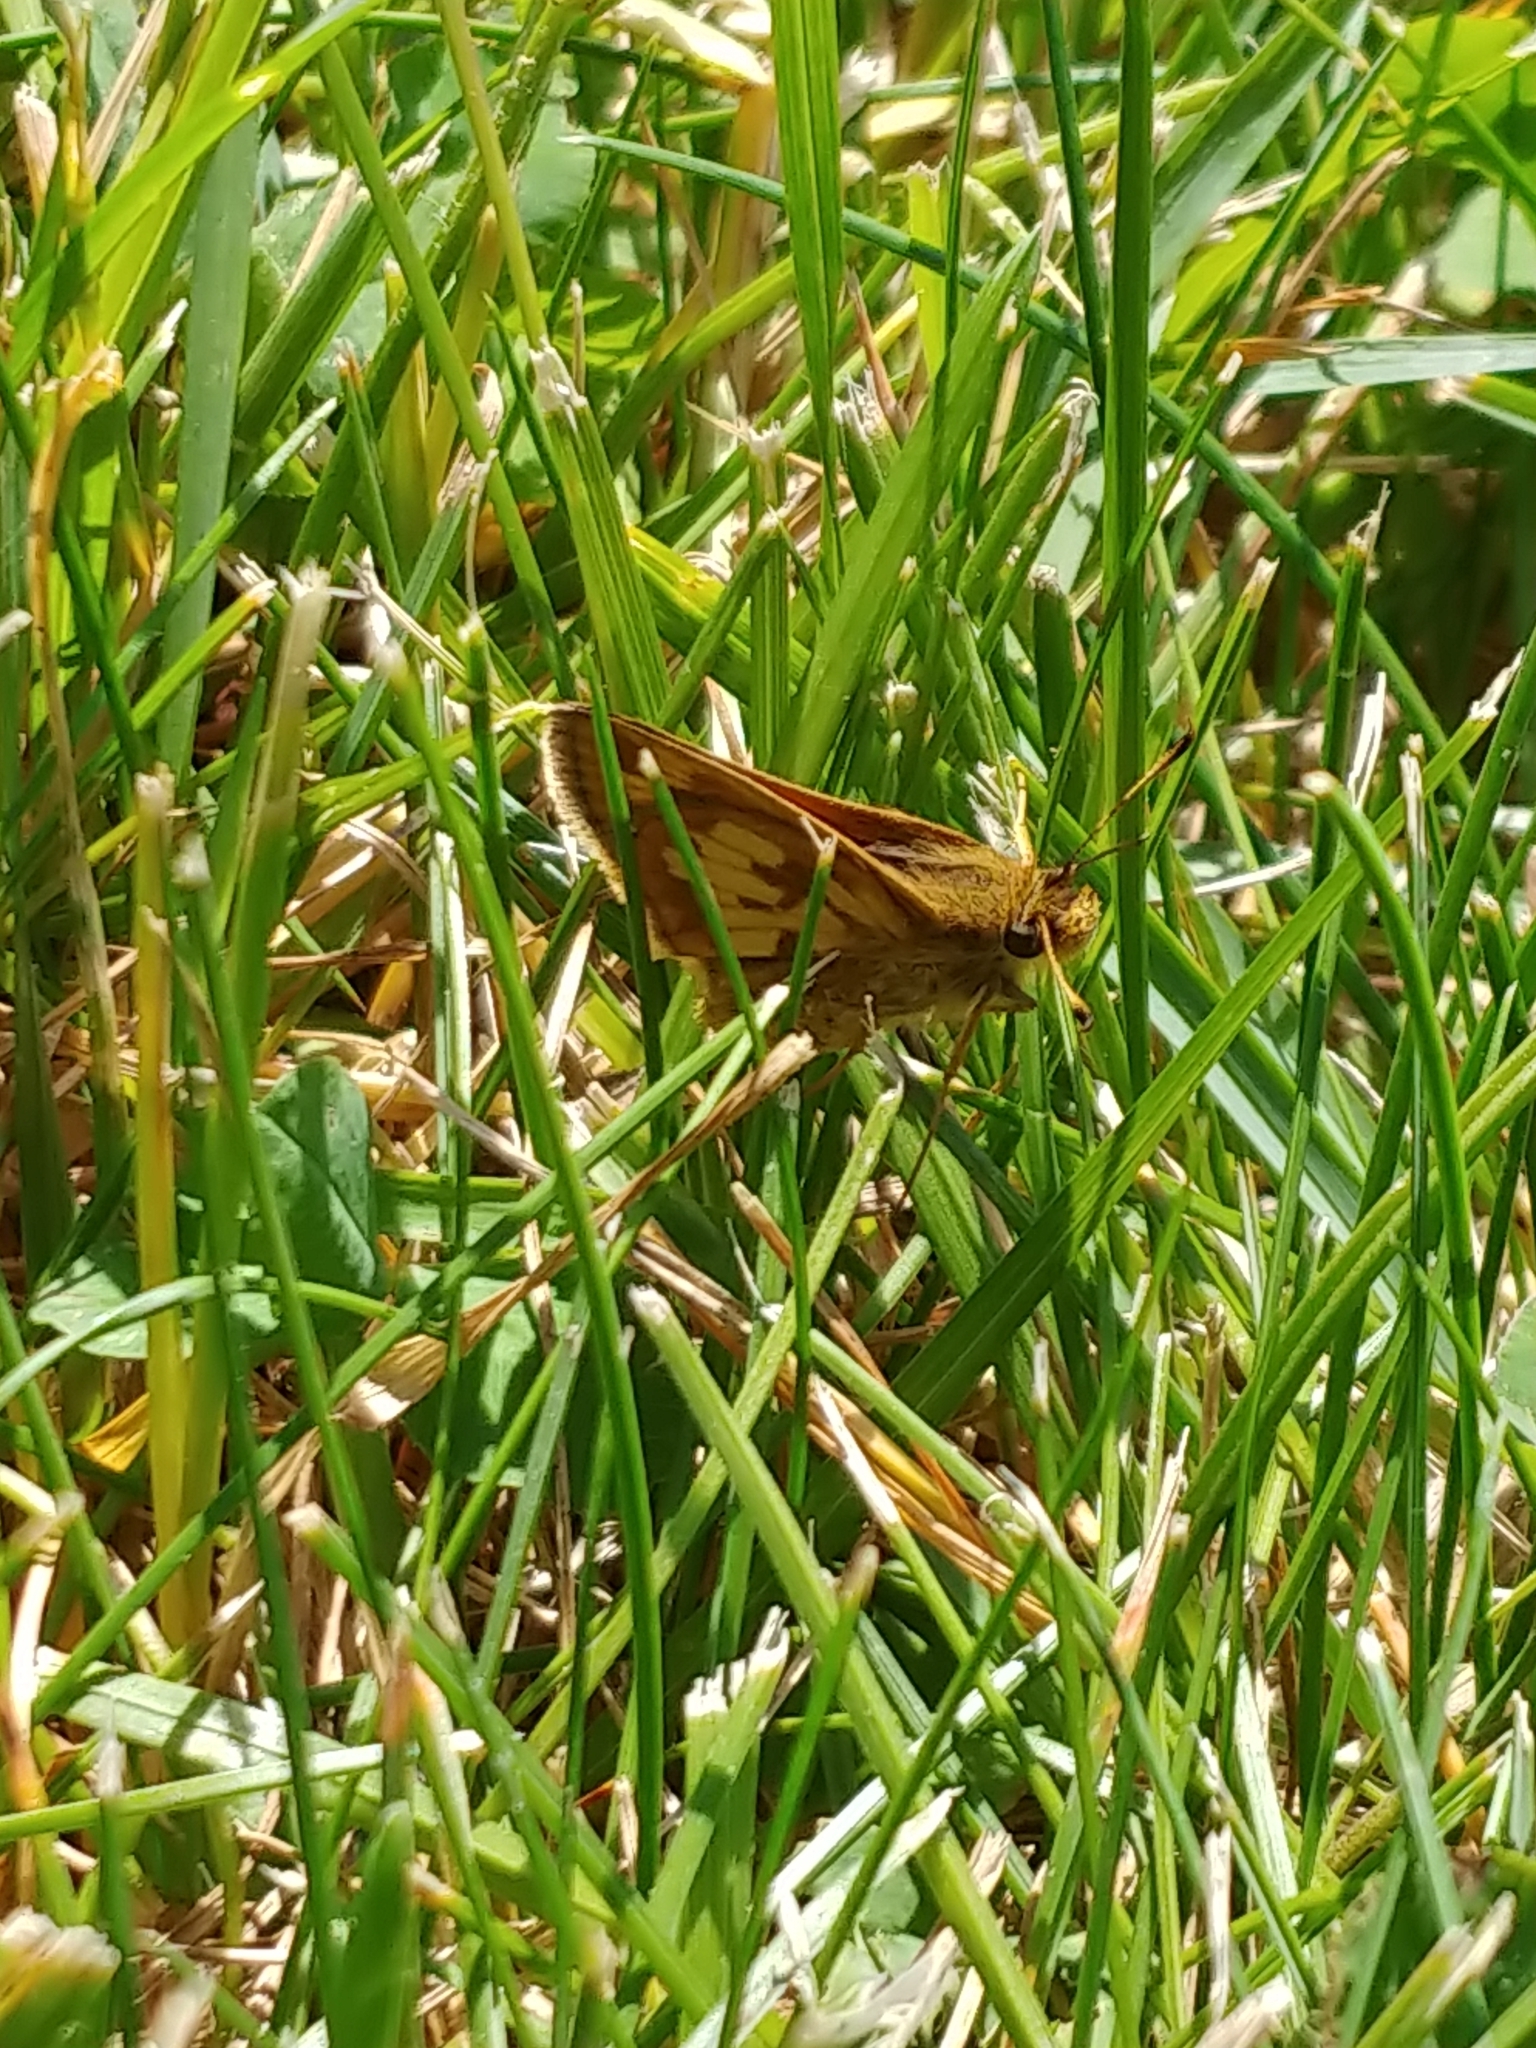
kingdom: Animalia
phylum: Arthropoda
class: Insecta
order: Lepidoptera
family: Hesperiidae
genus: Polites
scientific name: Polites coras
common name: Peck's skipper
